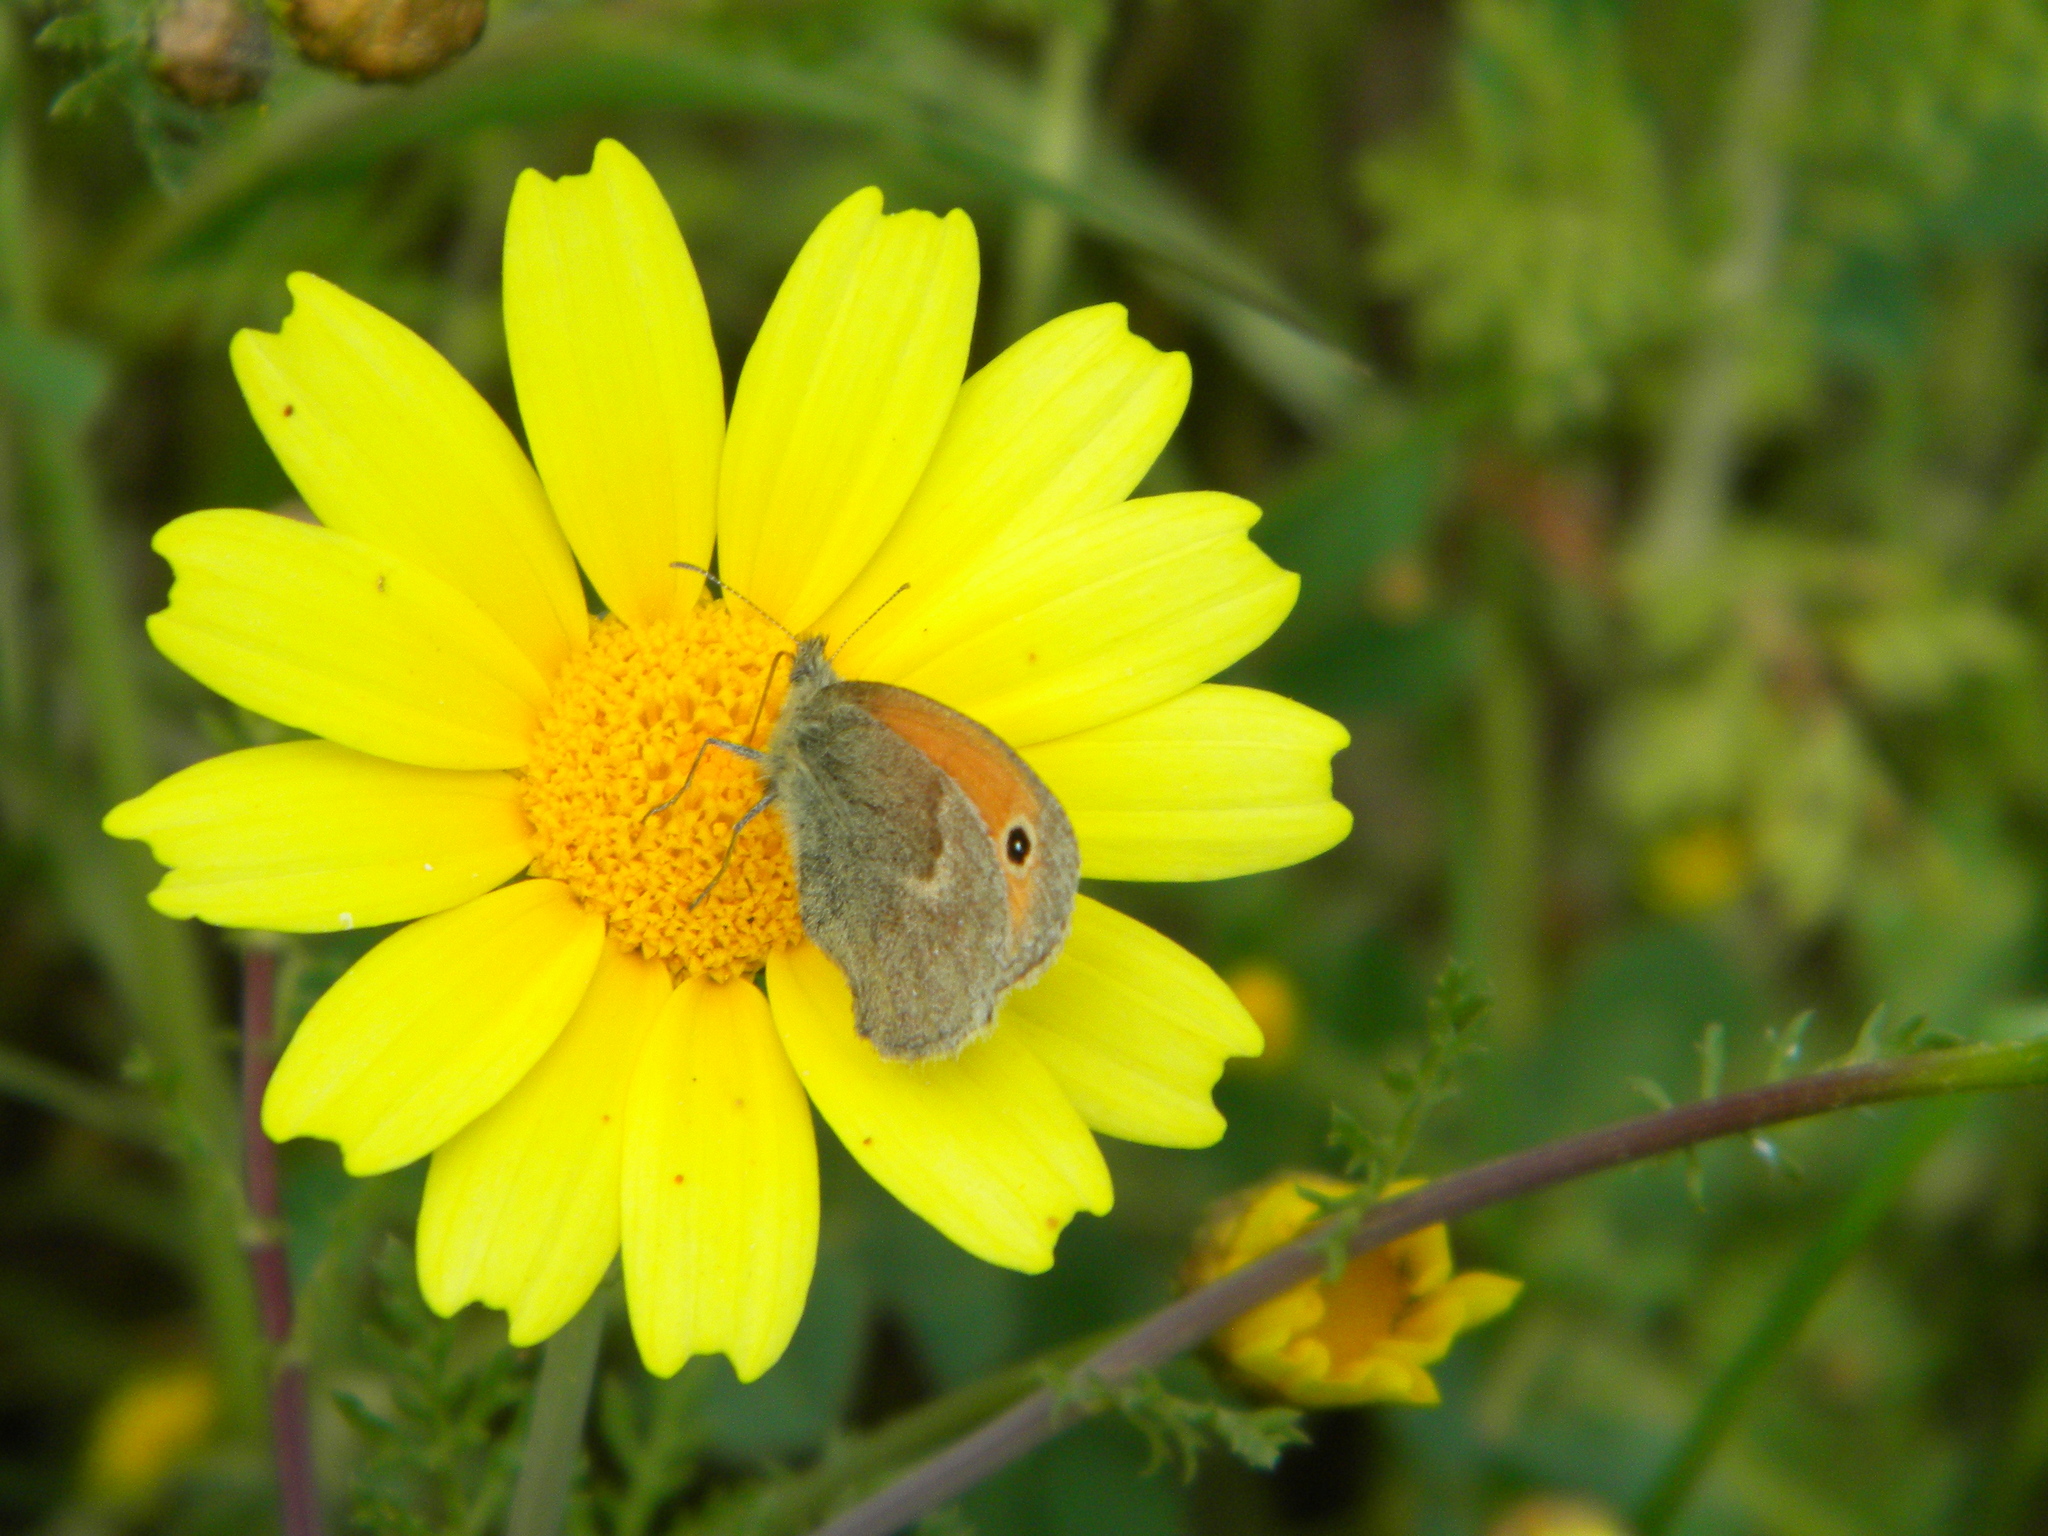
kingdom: Animalia
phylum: Arthropoda
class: Insecta
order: Lepidoptera
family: Nymphalidae
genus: Coenonympha
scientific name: Coenonympha pamphilus
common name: Small heath
